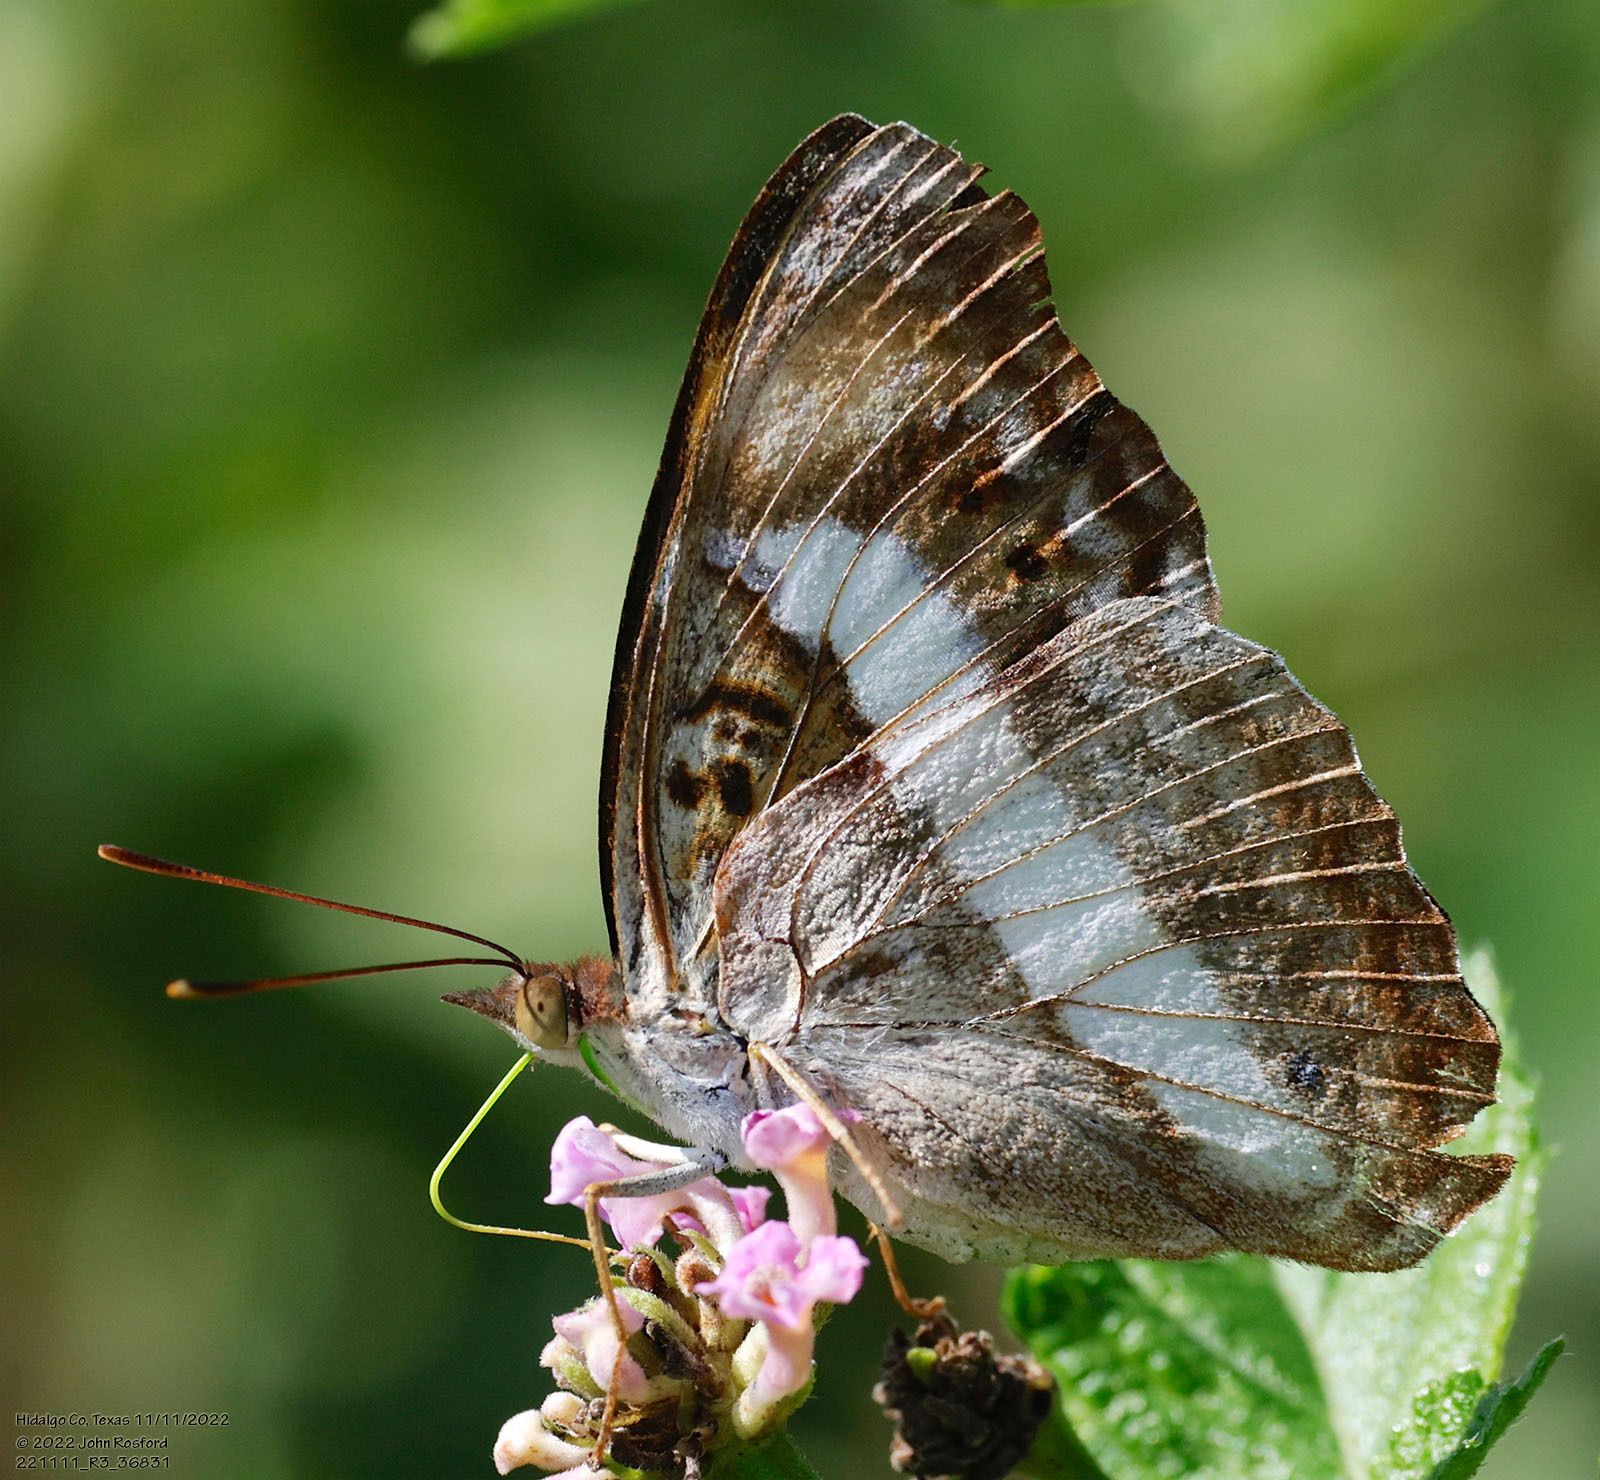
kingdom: Animalia
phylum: Arthropoda
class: Insecta
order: Lepidoptera
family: Nymphalidae
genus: Doxocopa
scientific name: Doxocopa pavon
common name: Pavon emperor
